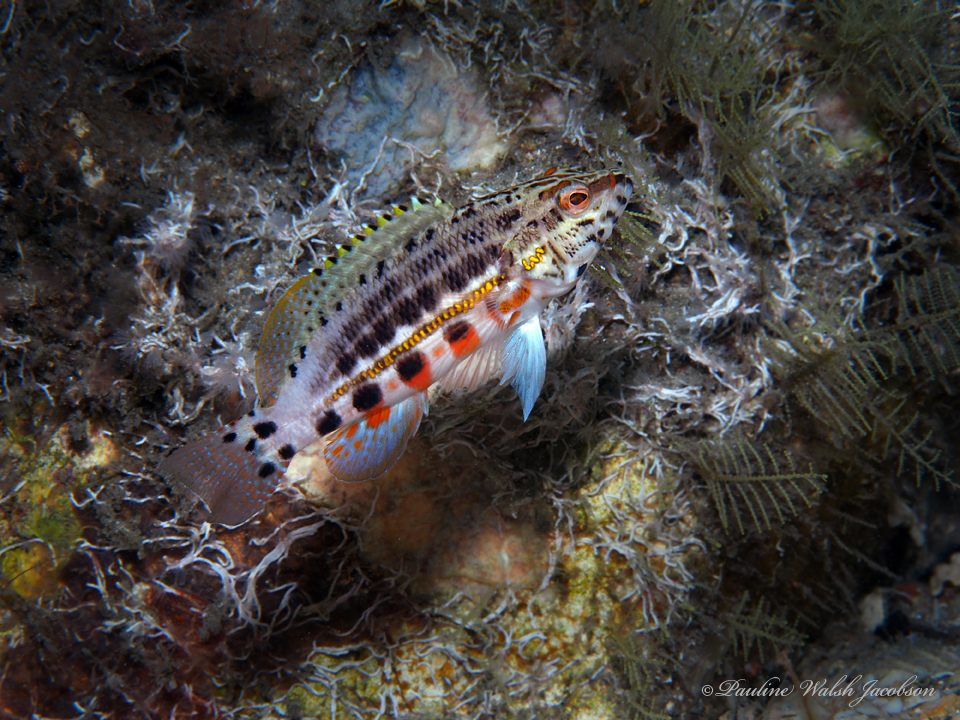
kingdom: Animalia
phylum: Chordata
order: Perciformes
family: Serranidae
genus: Serranus
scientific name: Serranus baldwini
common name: Lantern bass
